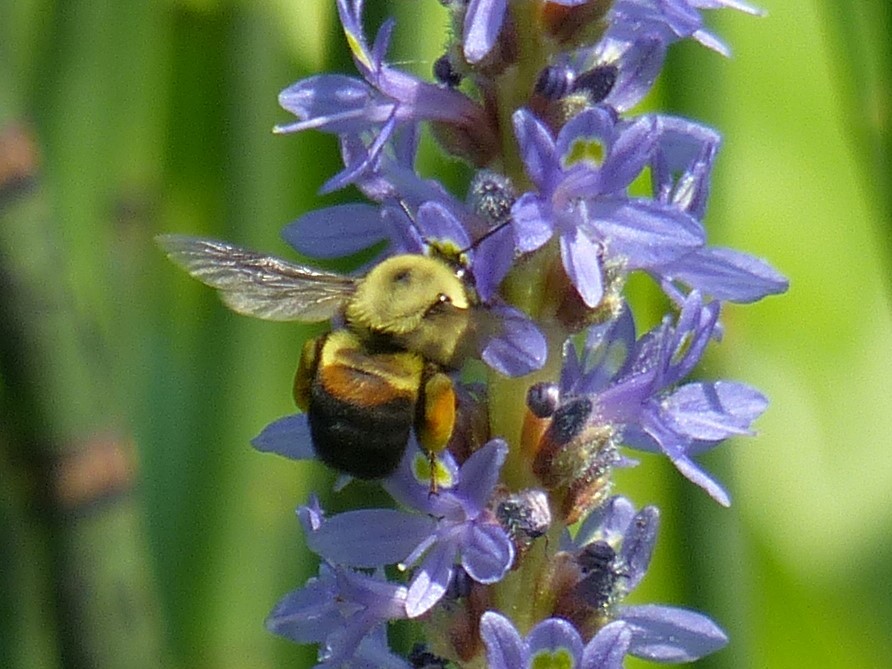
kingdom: Animalia
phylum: Arthropoda
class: Insecta
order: Hymenoptera
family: Apidae
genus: Bombus
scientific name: Bombus griseocollis
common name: Brown-belted bumble bee
